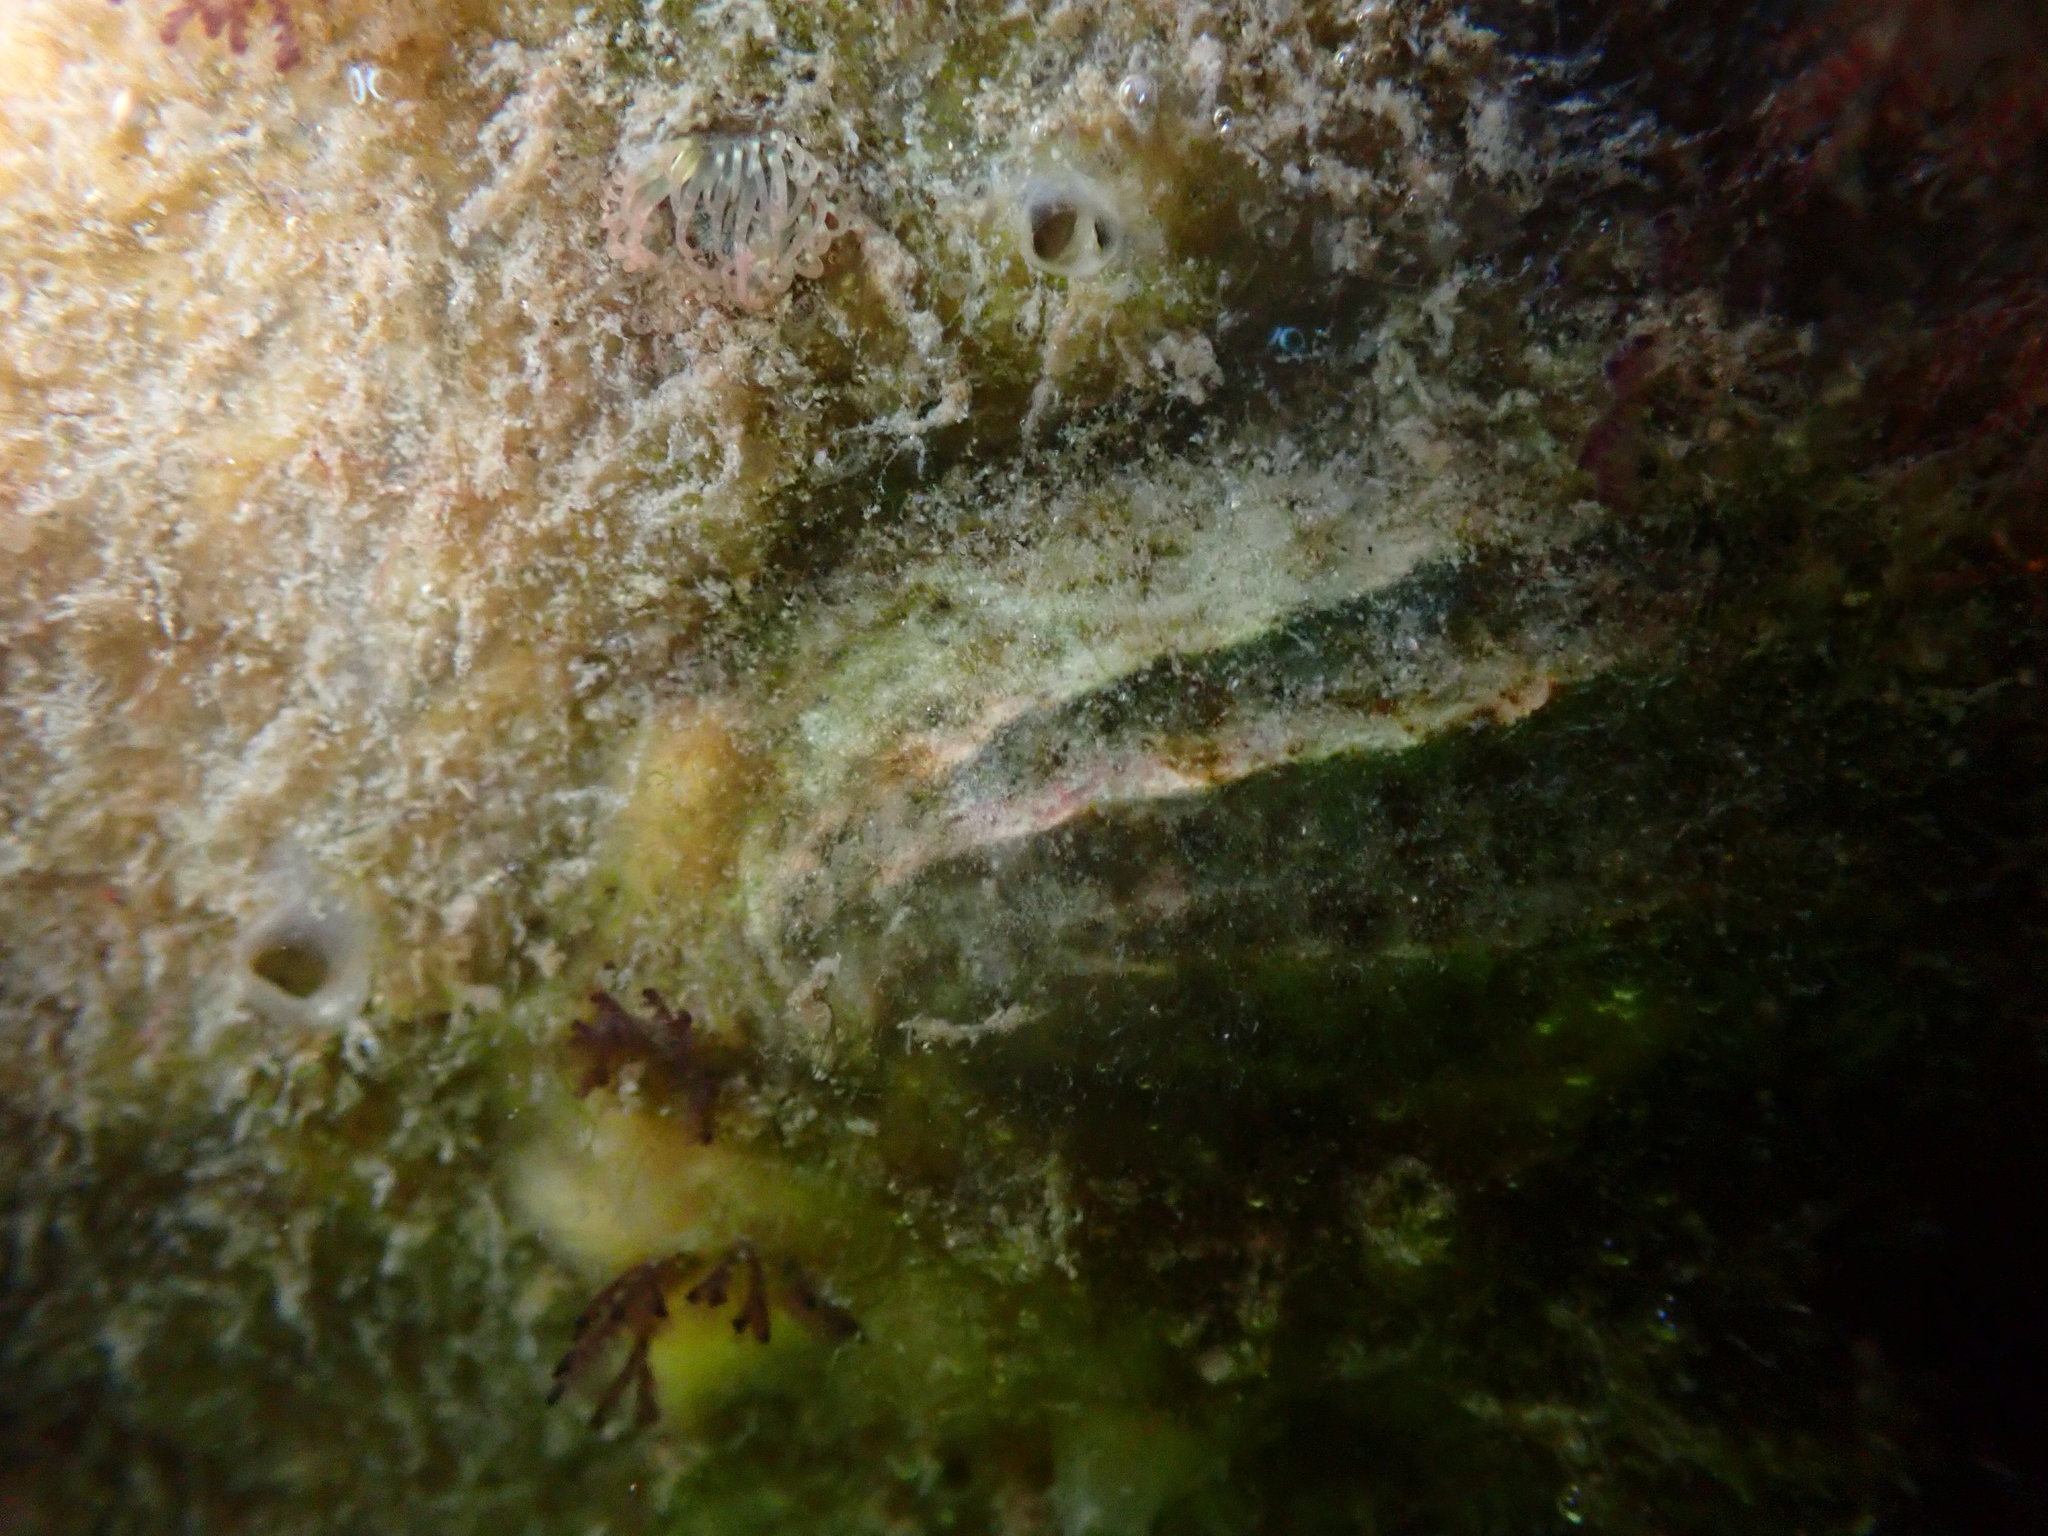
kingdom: Animalia
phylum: Mollusca
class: Gastropoda
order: Littorinimorpha
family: Calyptraeidae
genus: Maoricrypta
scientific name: Maoricrypta costata
